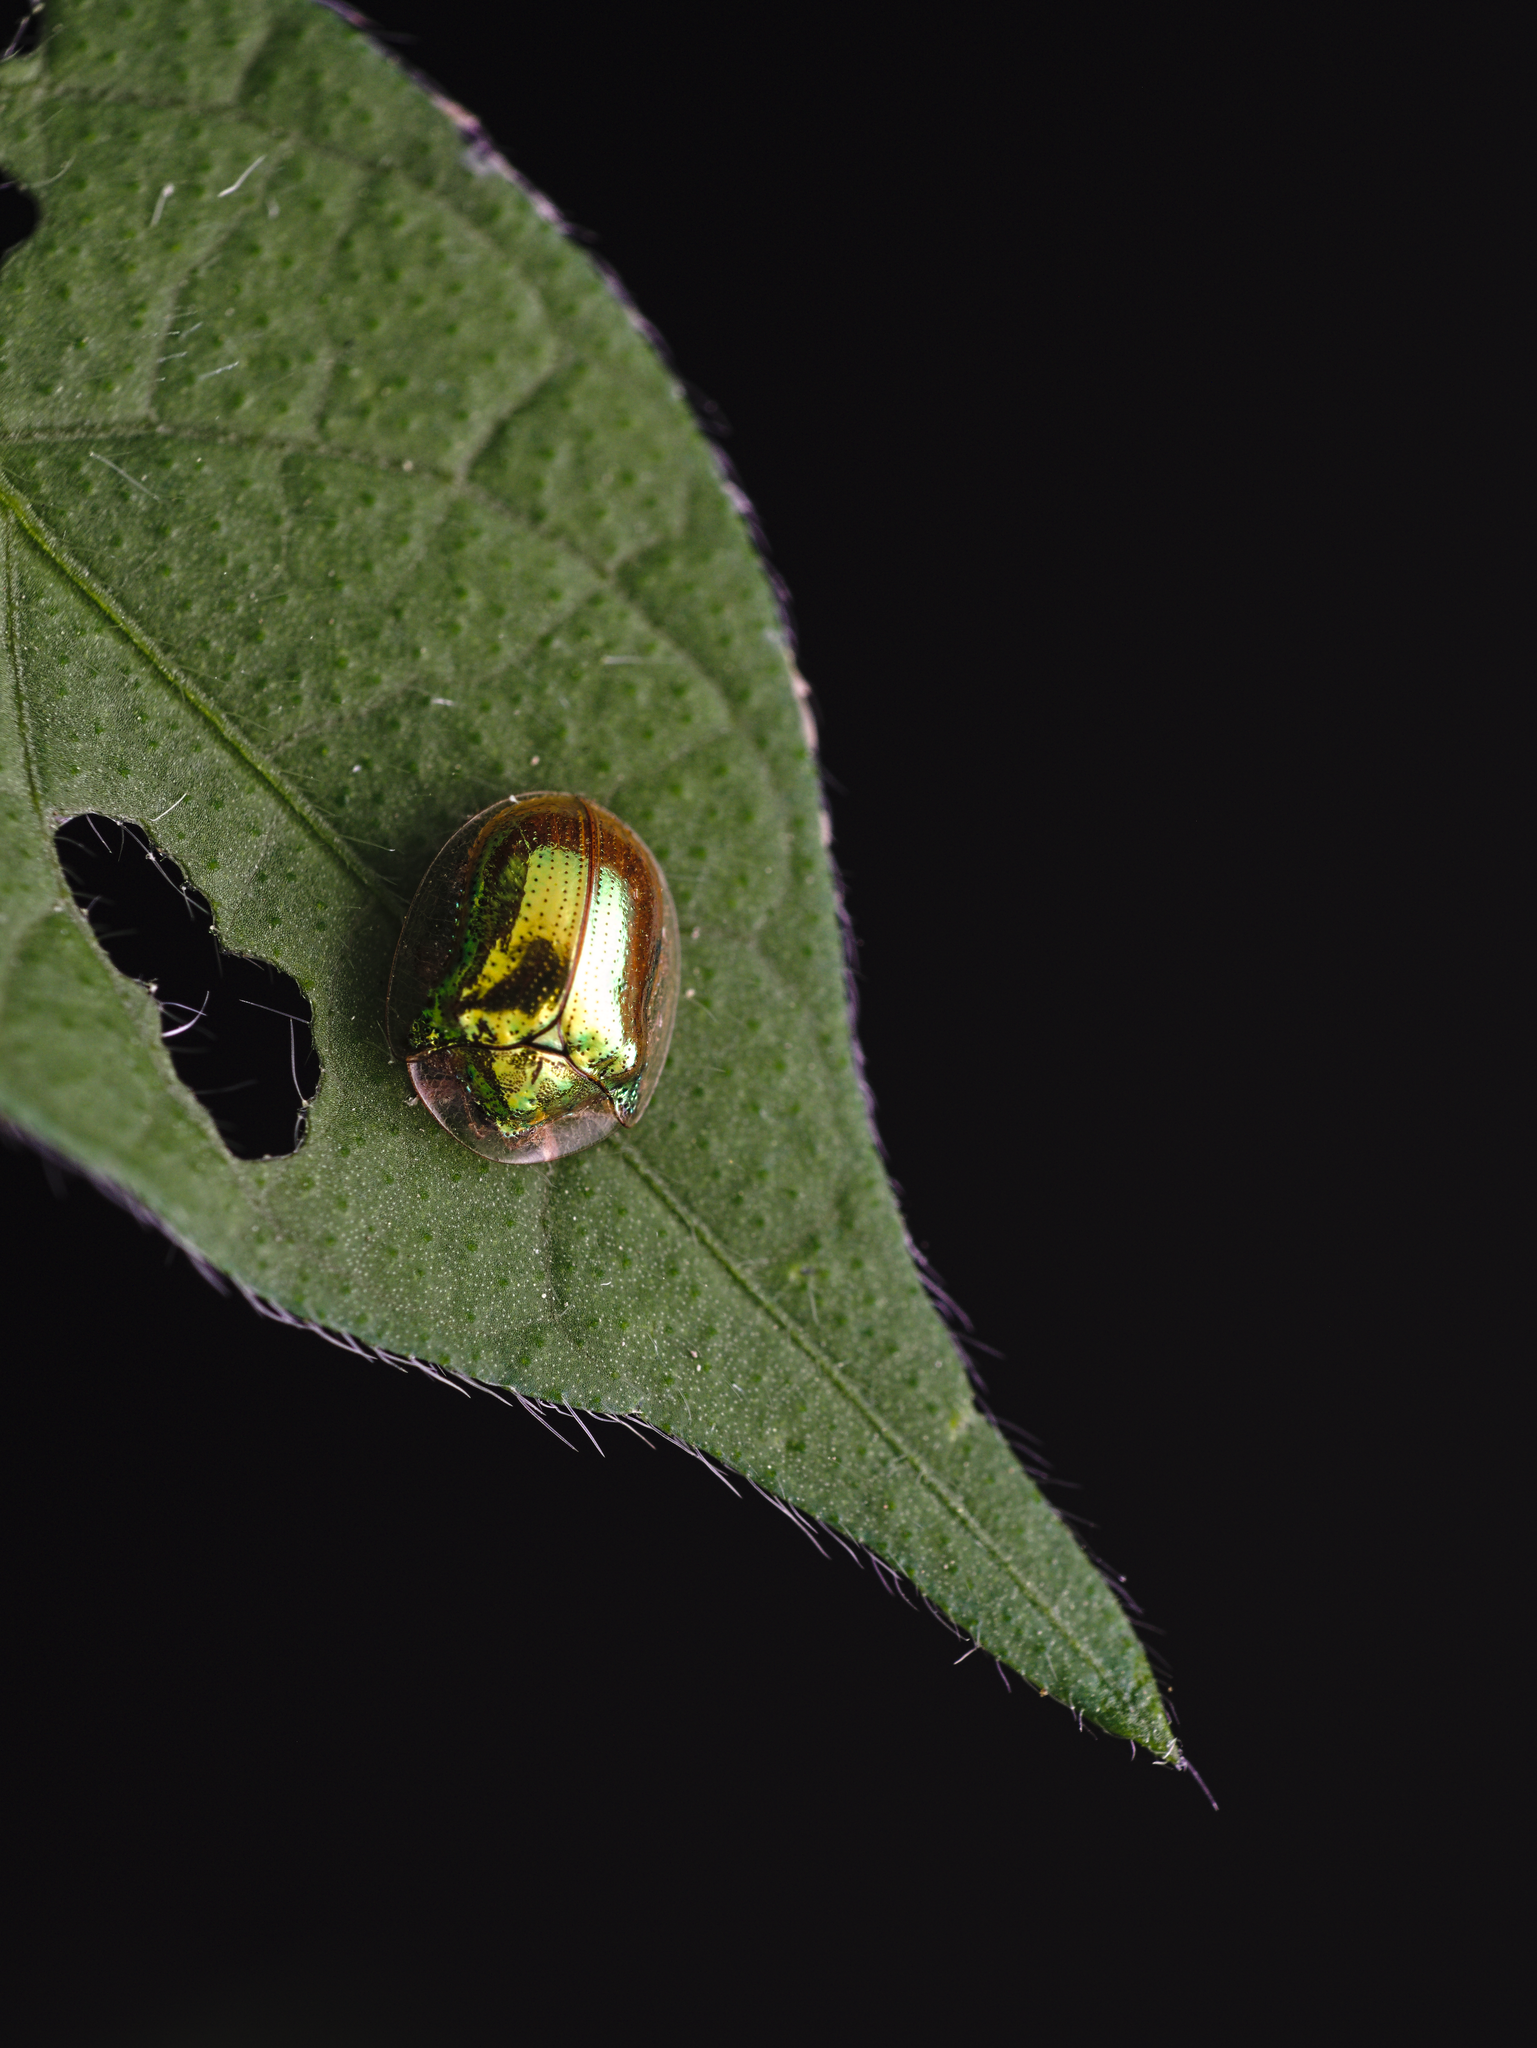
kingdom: Animalia
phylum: Arthropoda
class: Insecta
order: Coleoptera
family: Chrysomelidae
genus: Charidotella
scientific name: Charidotella succinea
